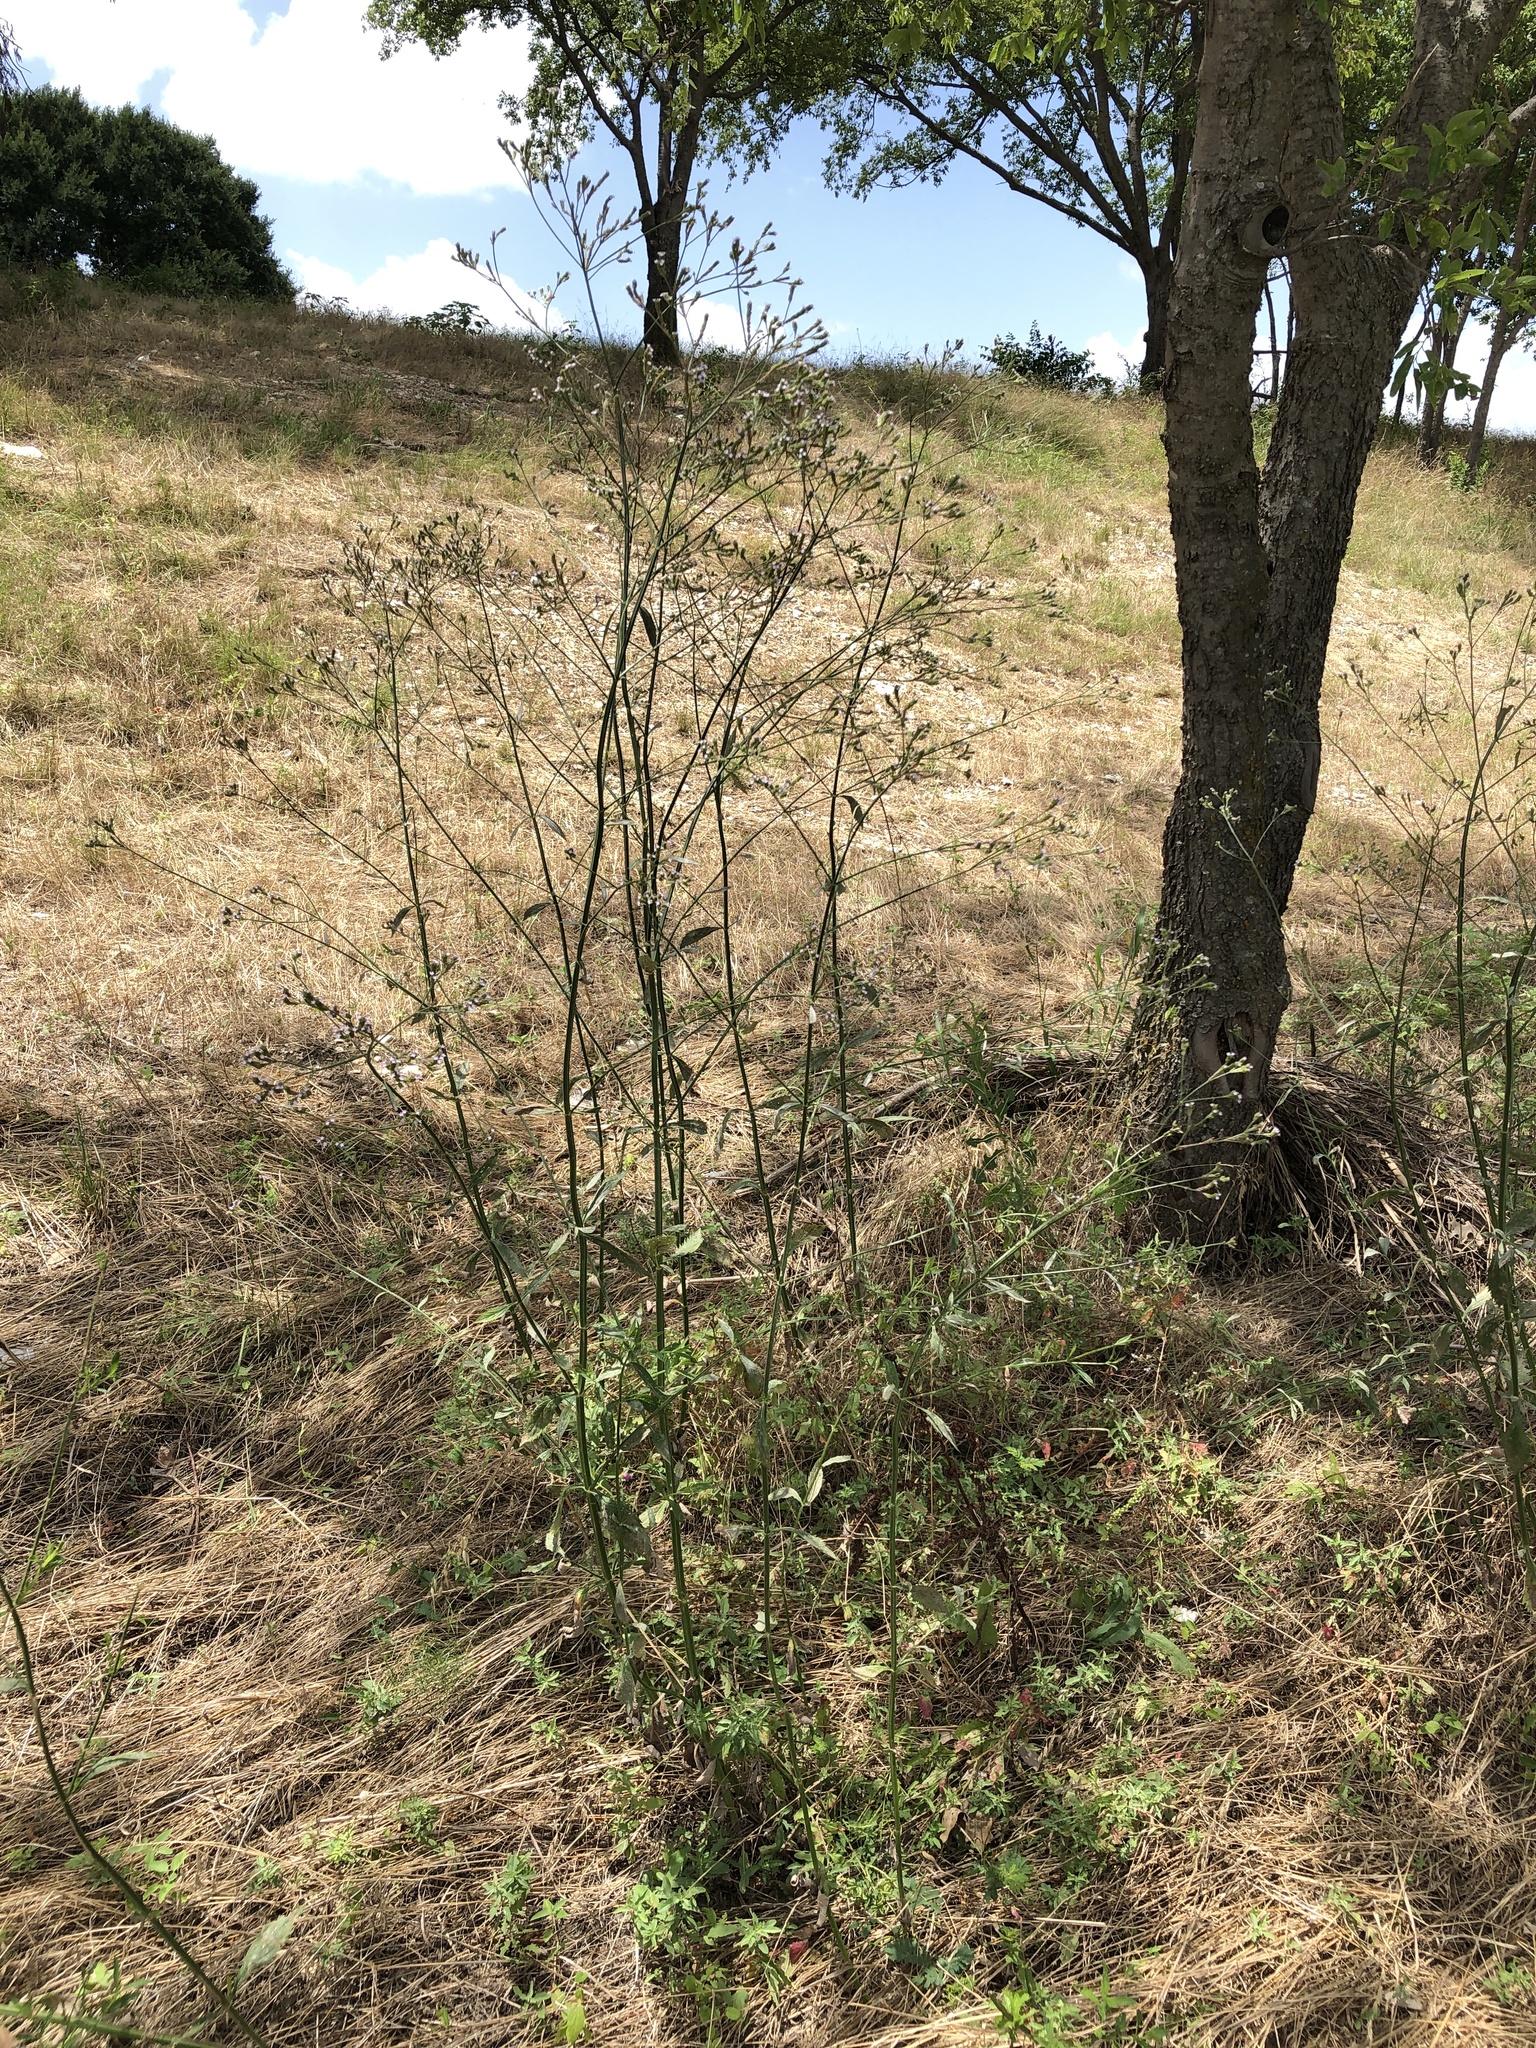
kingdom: Plantae
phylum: Tracheophyta
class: Magnoliopsida
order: Lamiales
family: Verbenaceae
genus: Verbena
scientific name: Verbena brasiliensis
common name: Brazilian vervain
